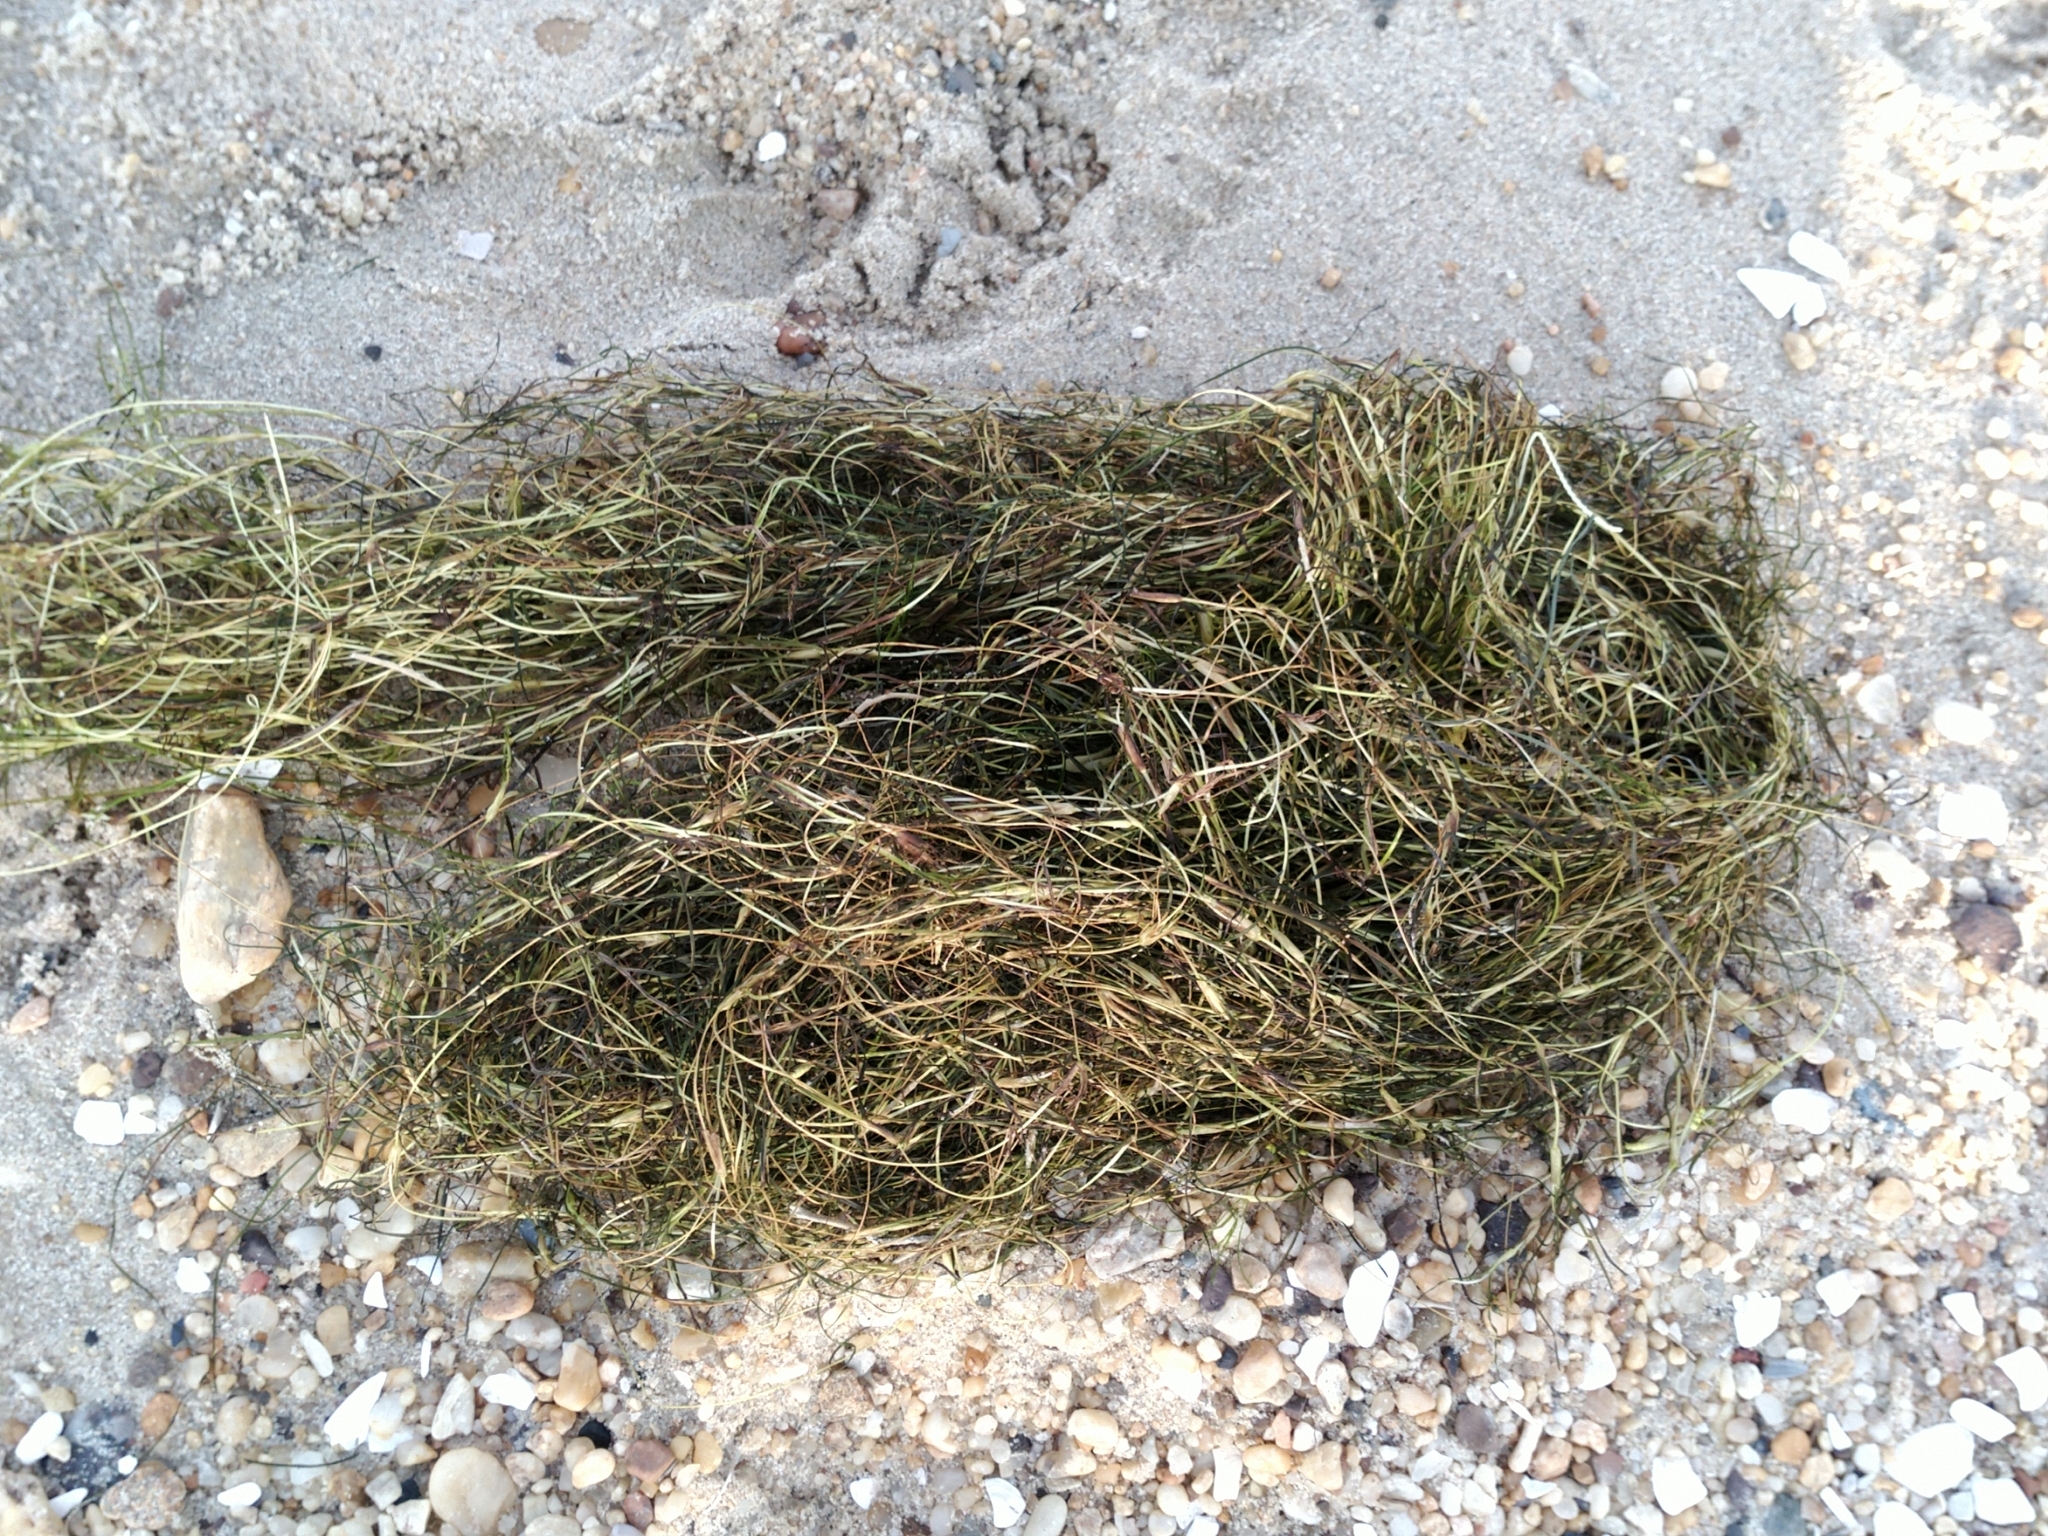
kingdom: Plantae
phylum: Tracheophyta
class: Liliopsida
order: Alismatales
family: Ruppiaceae
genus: Ruppia
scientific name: Ruppia maritima
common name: Beaked tasselweed
